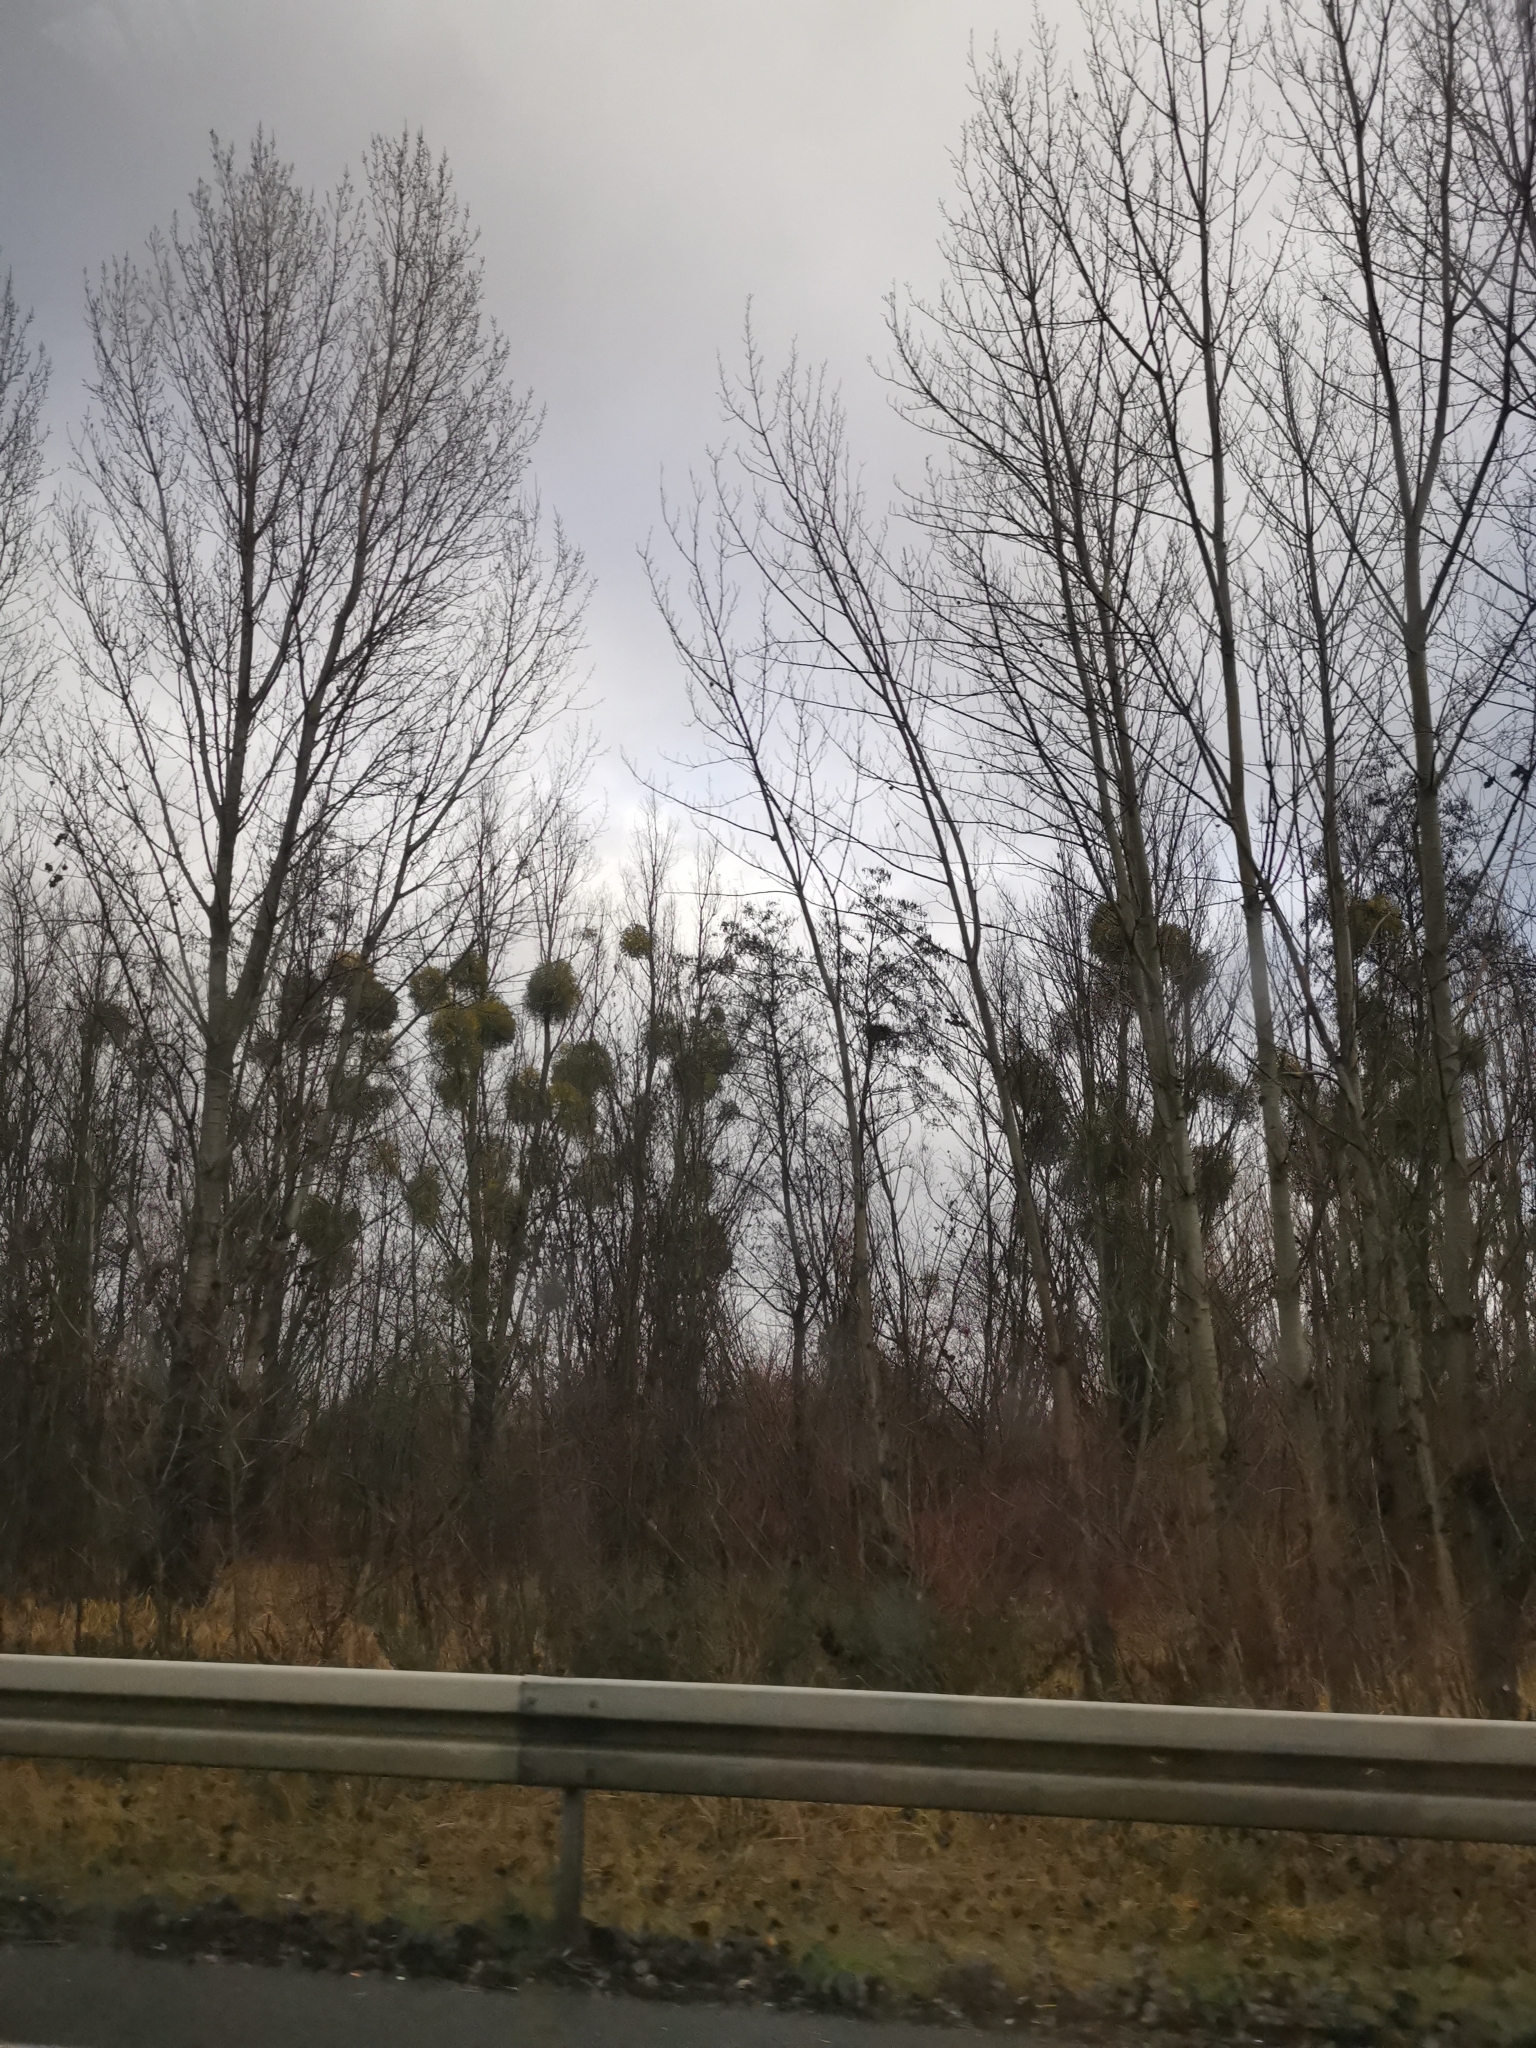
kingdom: Plantae
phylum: Tracheophyta
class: Magnoliopsida
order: Santalales
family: Viscaceae
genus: Viscum
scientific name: Viscum album
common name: Mistletoe
